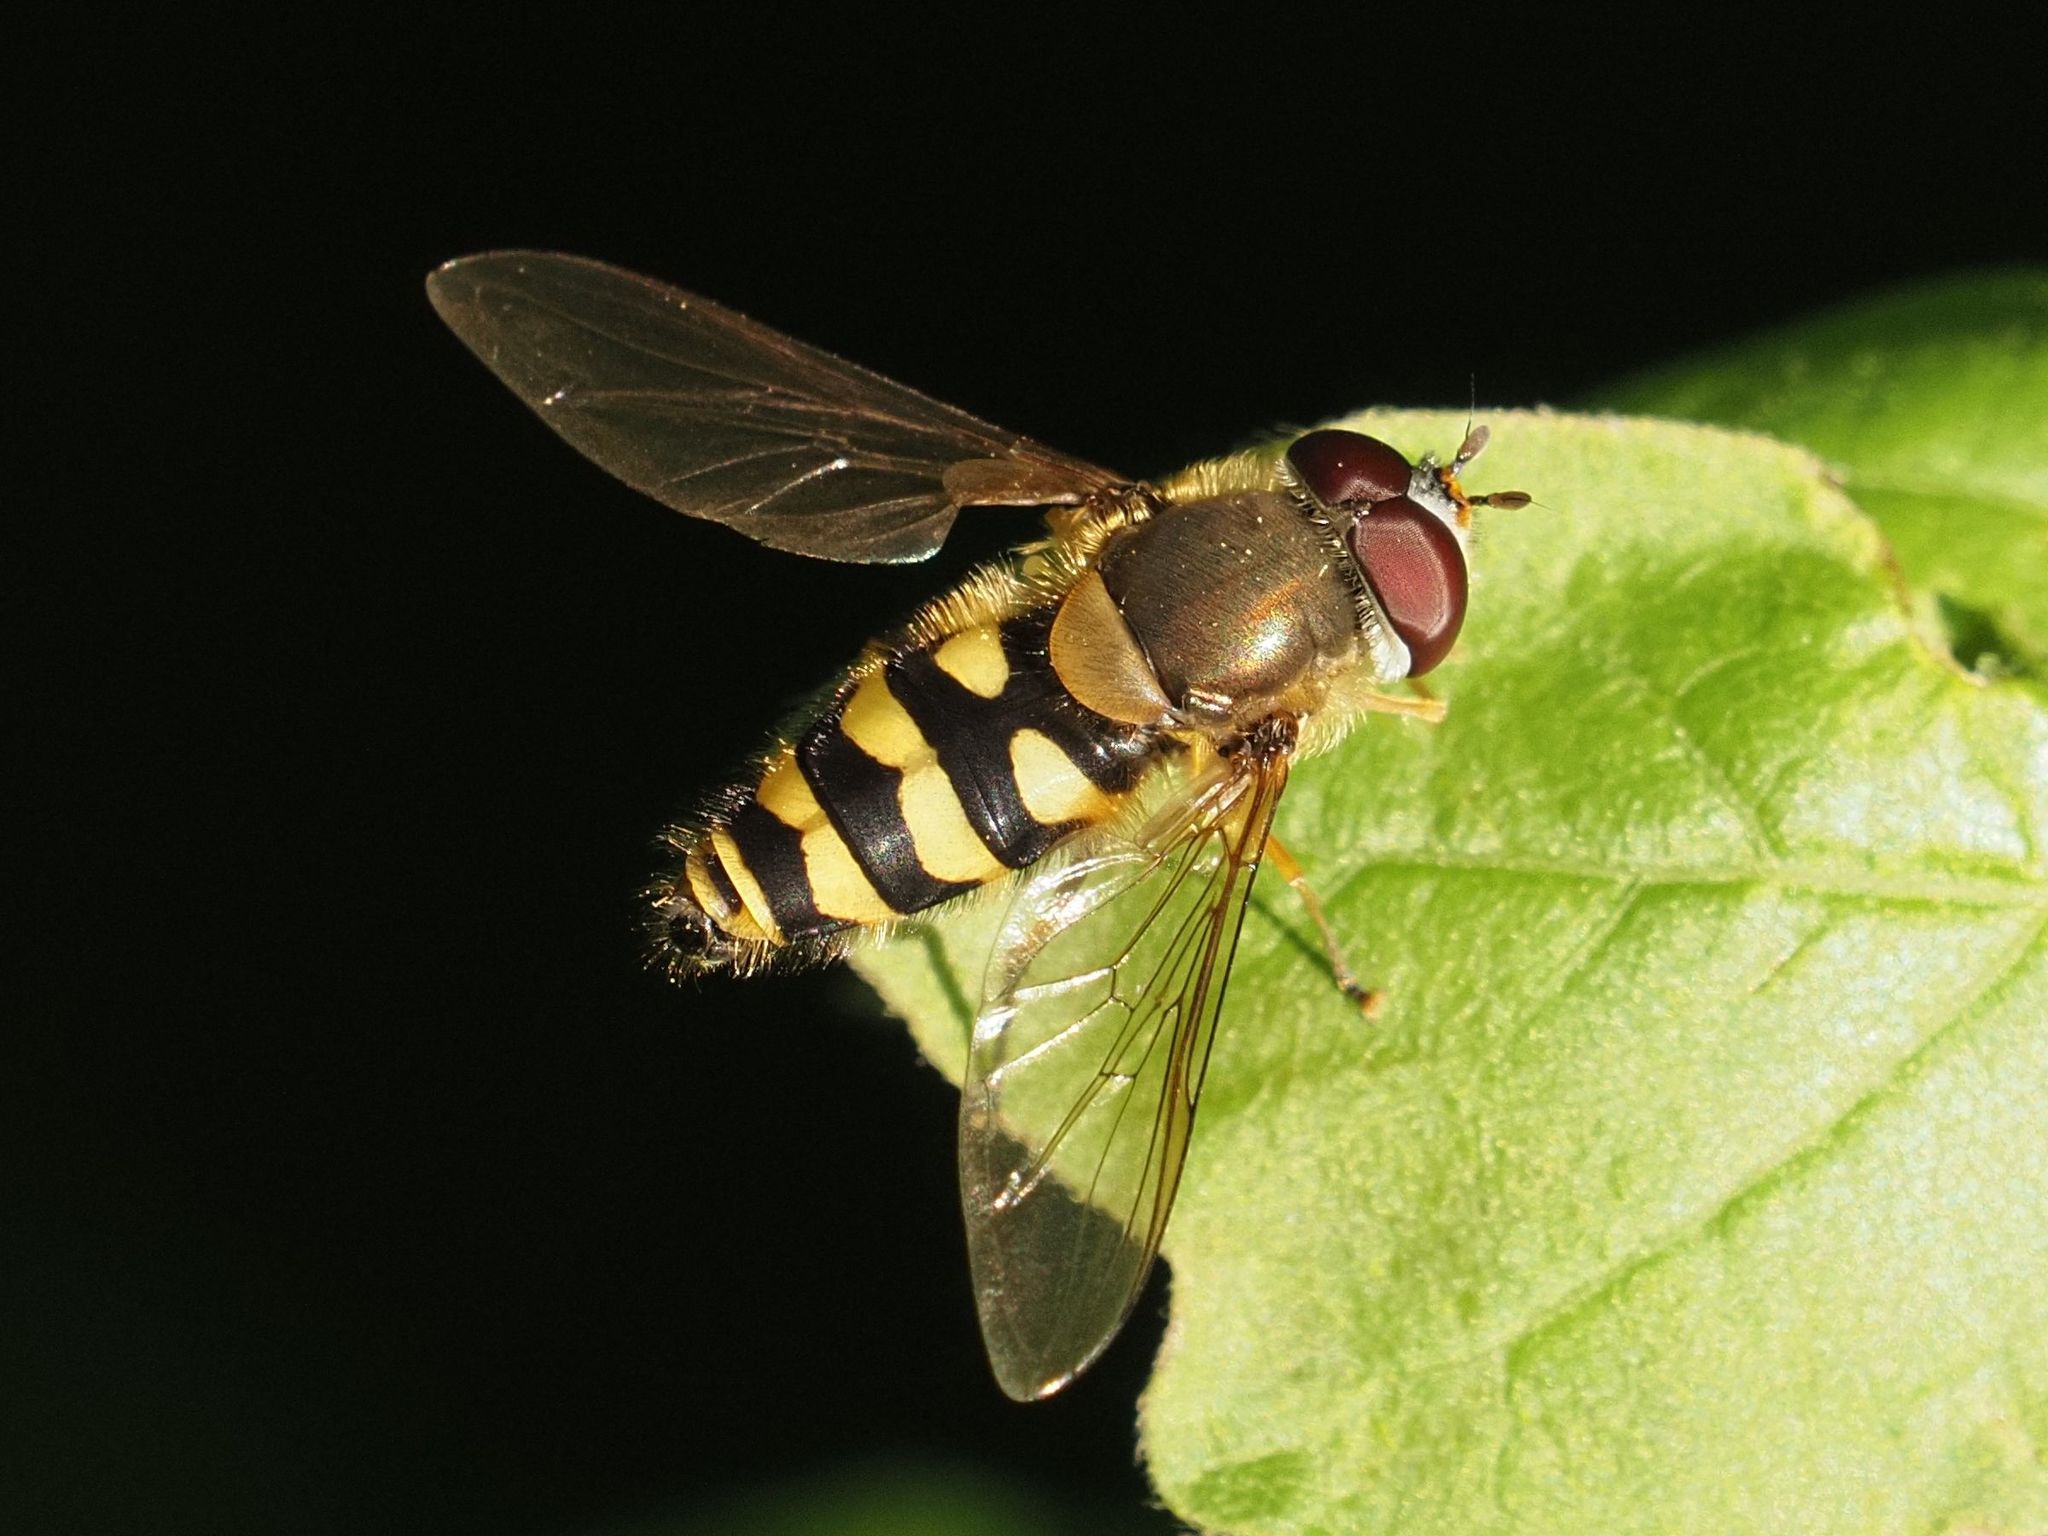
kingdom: Animalia
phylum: Arthropoda
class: Insecta
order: Diptera
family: Syrphidae
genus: Syrphus
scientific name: Syrphus
